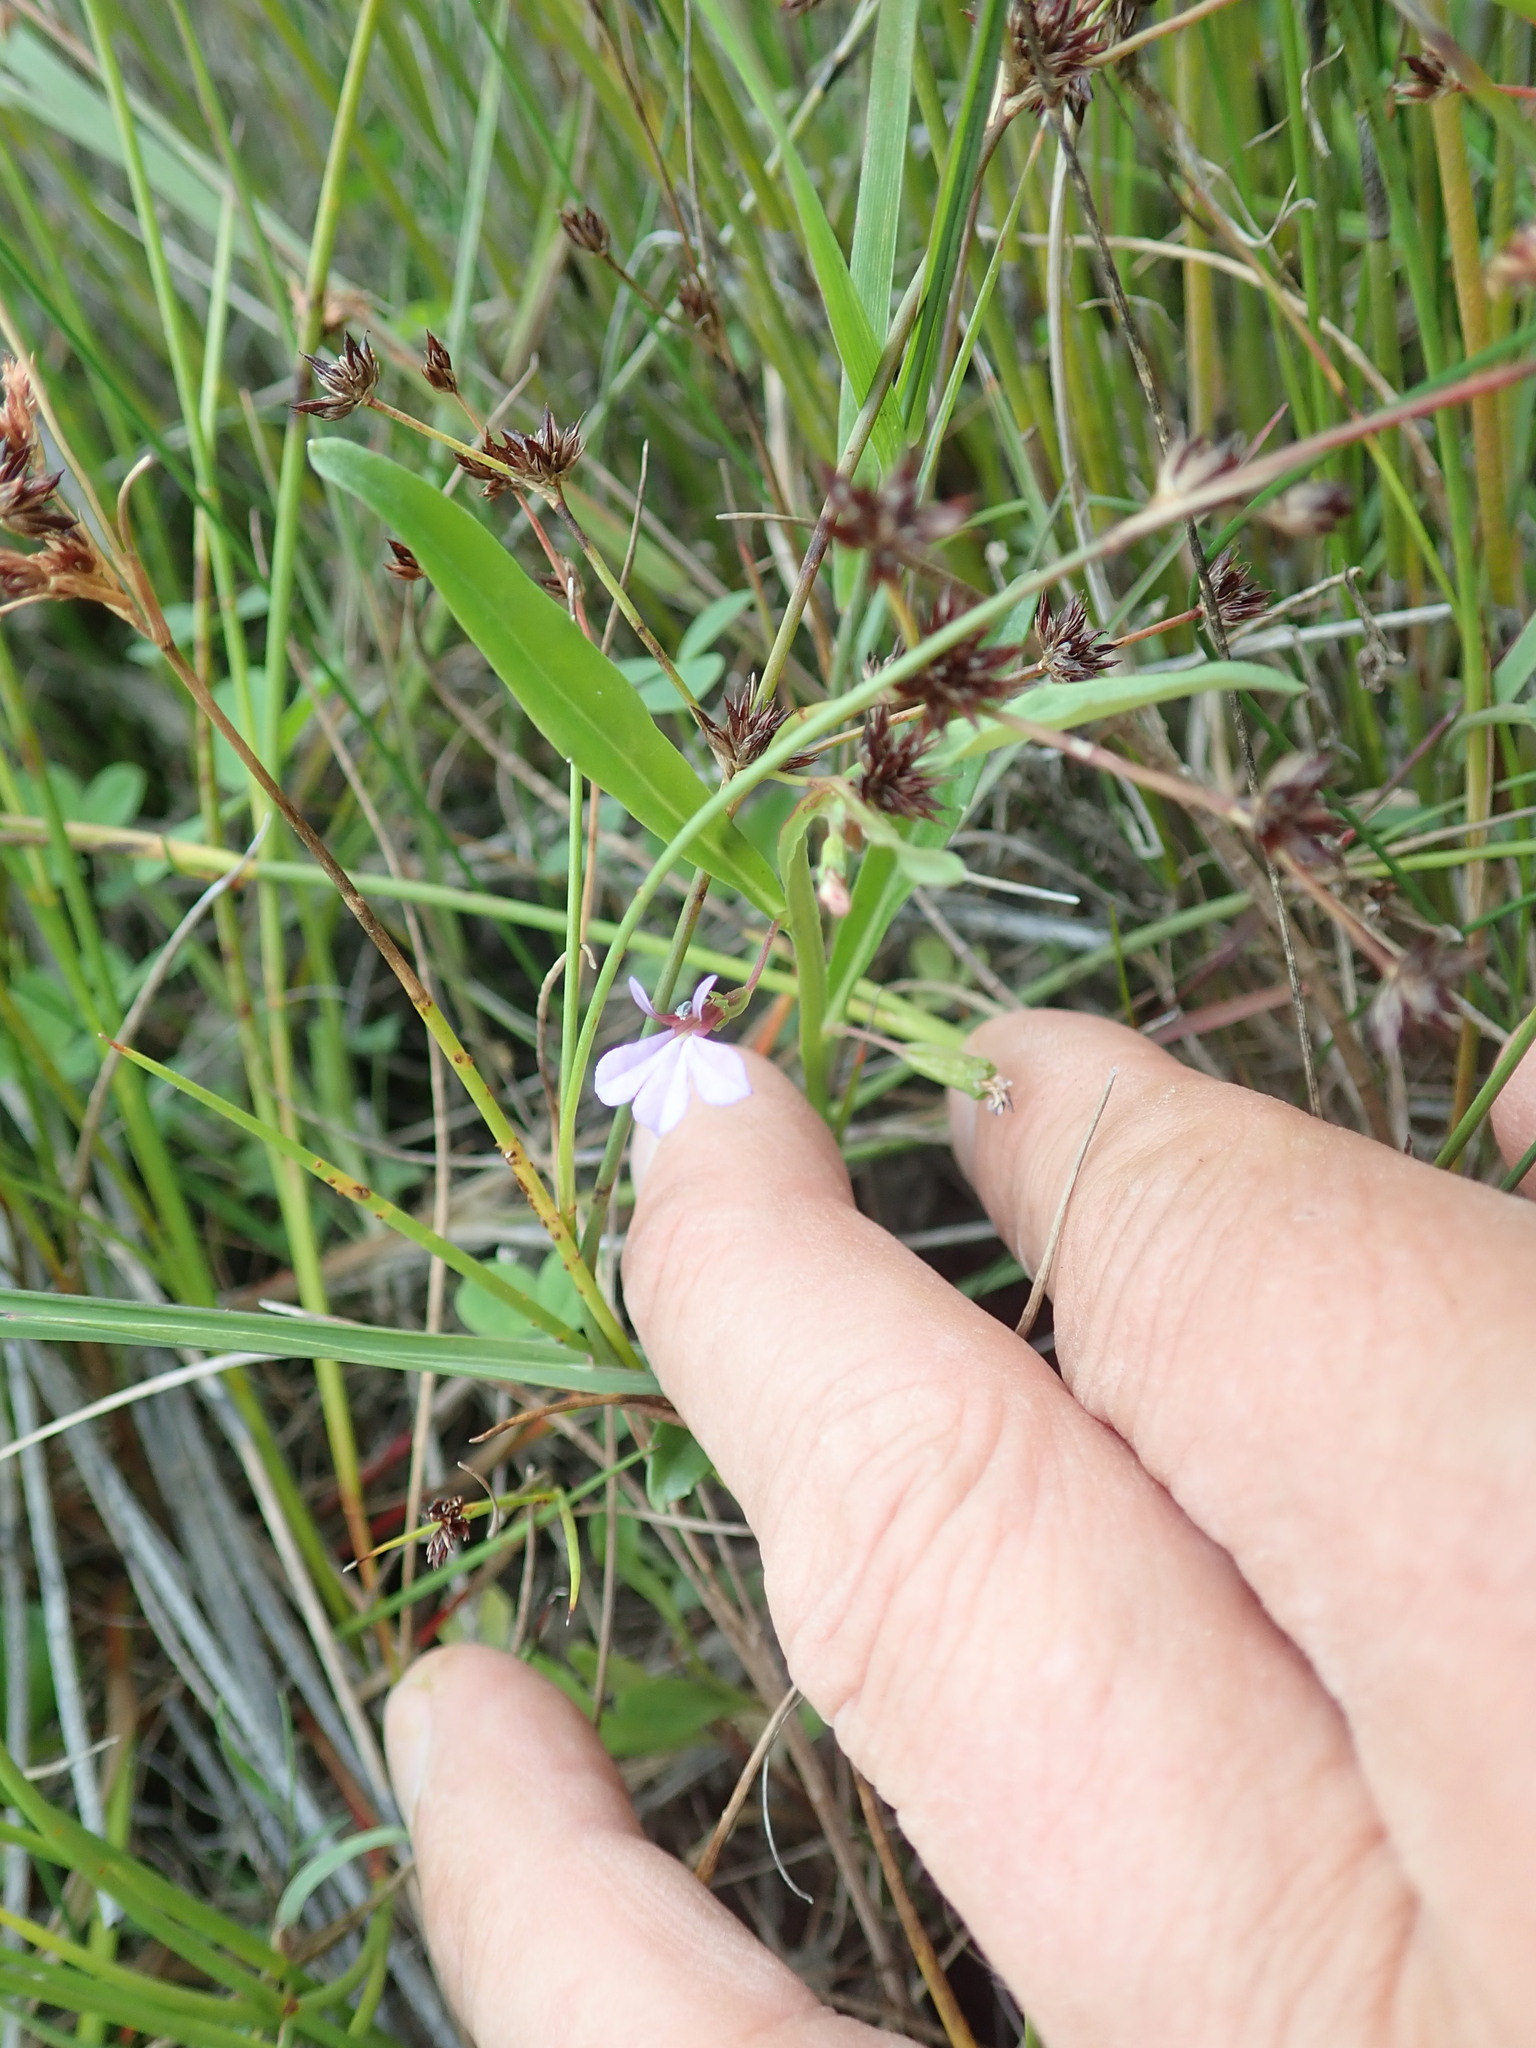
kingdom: Plantae
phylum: Tracheophyta
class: Magnoliopsida
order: Asterales
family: Campanulaceae
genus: Lobelia
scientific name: Lobelia anceps
